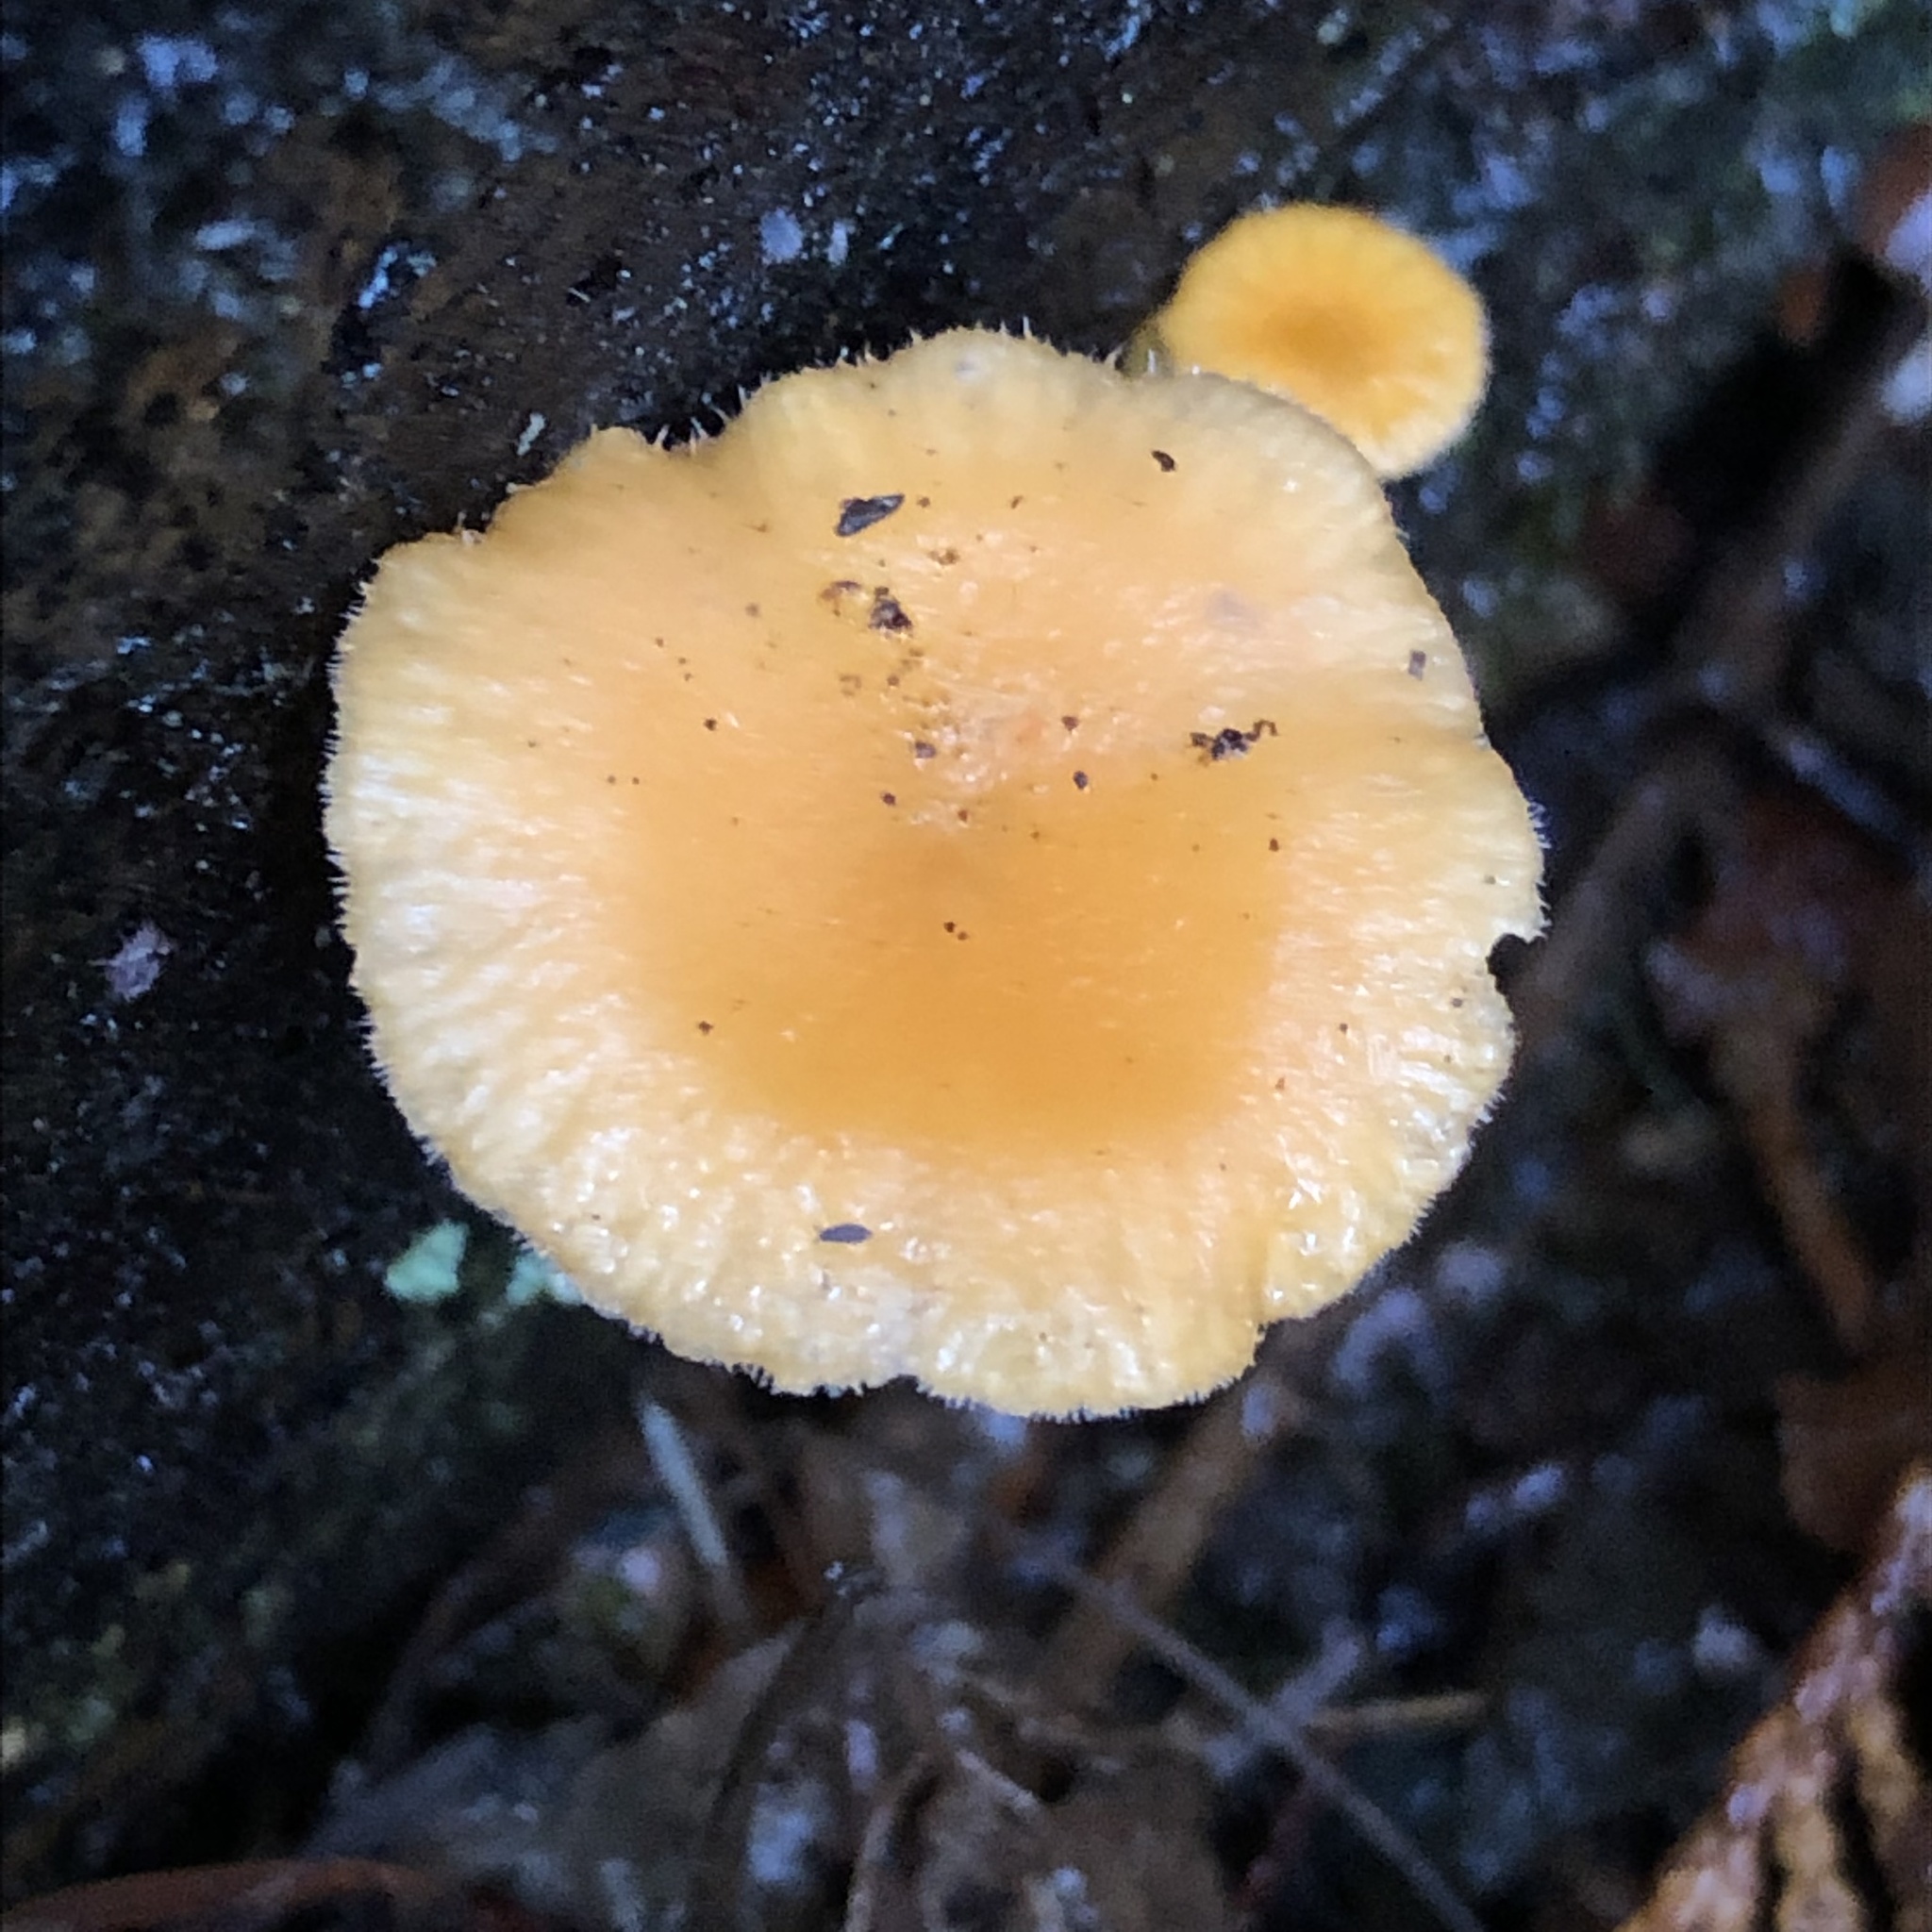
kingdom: Fungi
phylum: Basidiomycota
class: Agaricomycetes
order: Agaricales
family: Hygrophoraceae
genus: Chrysomphalina
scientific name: Chrysomphalina aurantiaca
